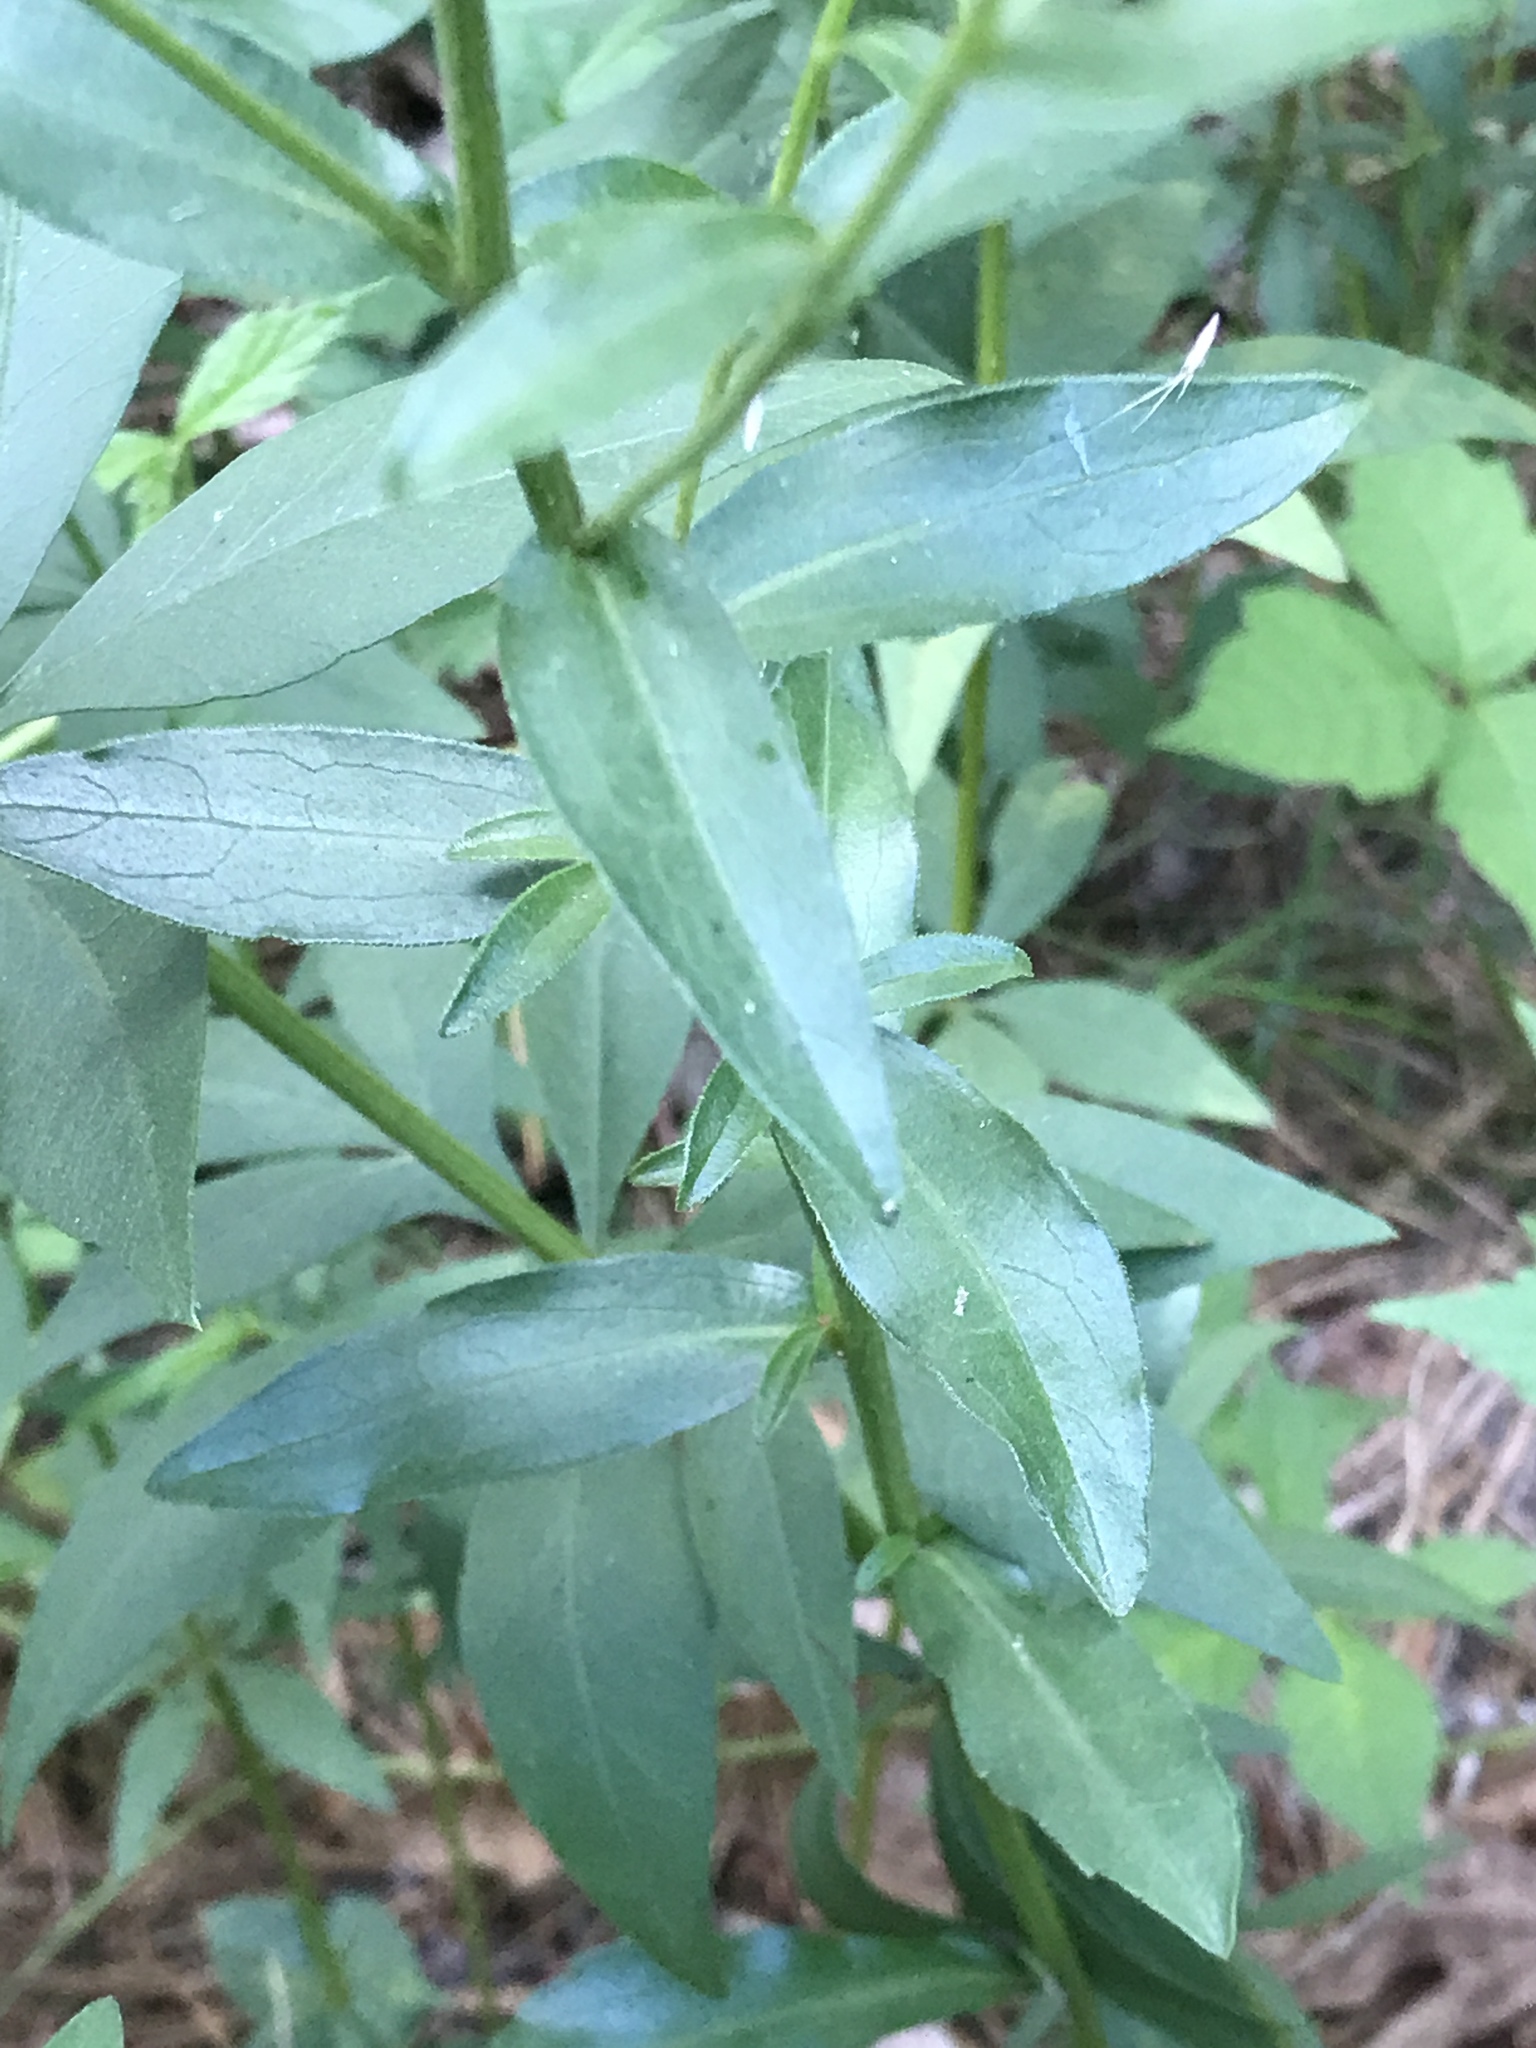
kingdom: Plantae
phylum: Tracheophyta
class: Magnoliopsida
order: Asterales
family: Asteraceae
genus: Sericocarpus
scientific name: Sericocarpus asteroides
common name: Toothed white-top aster
